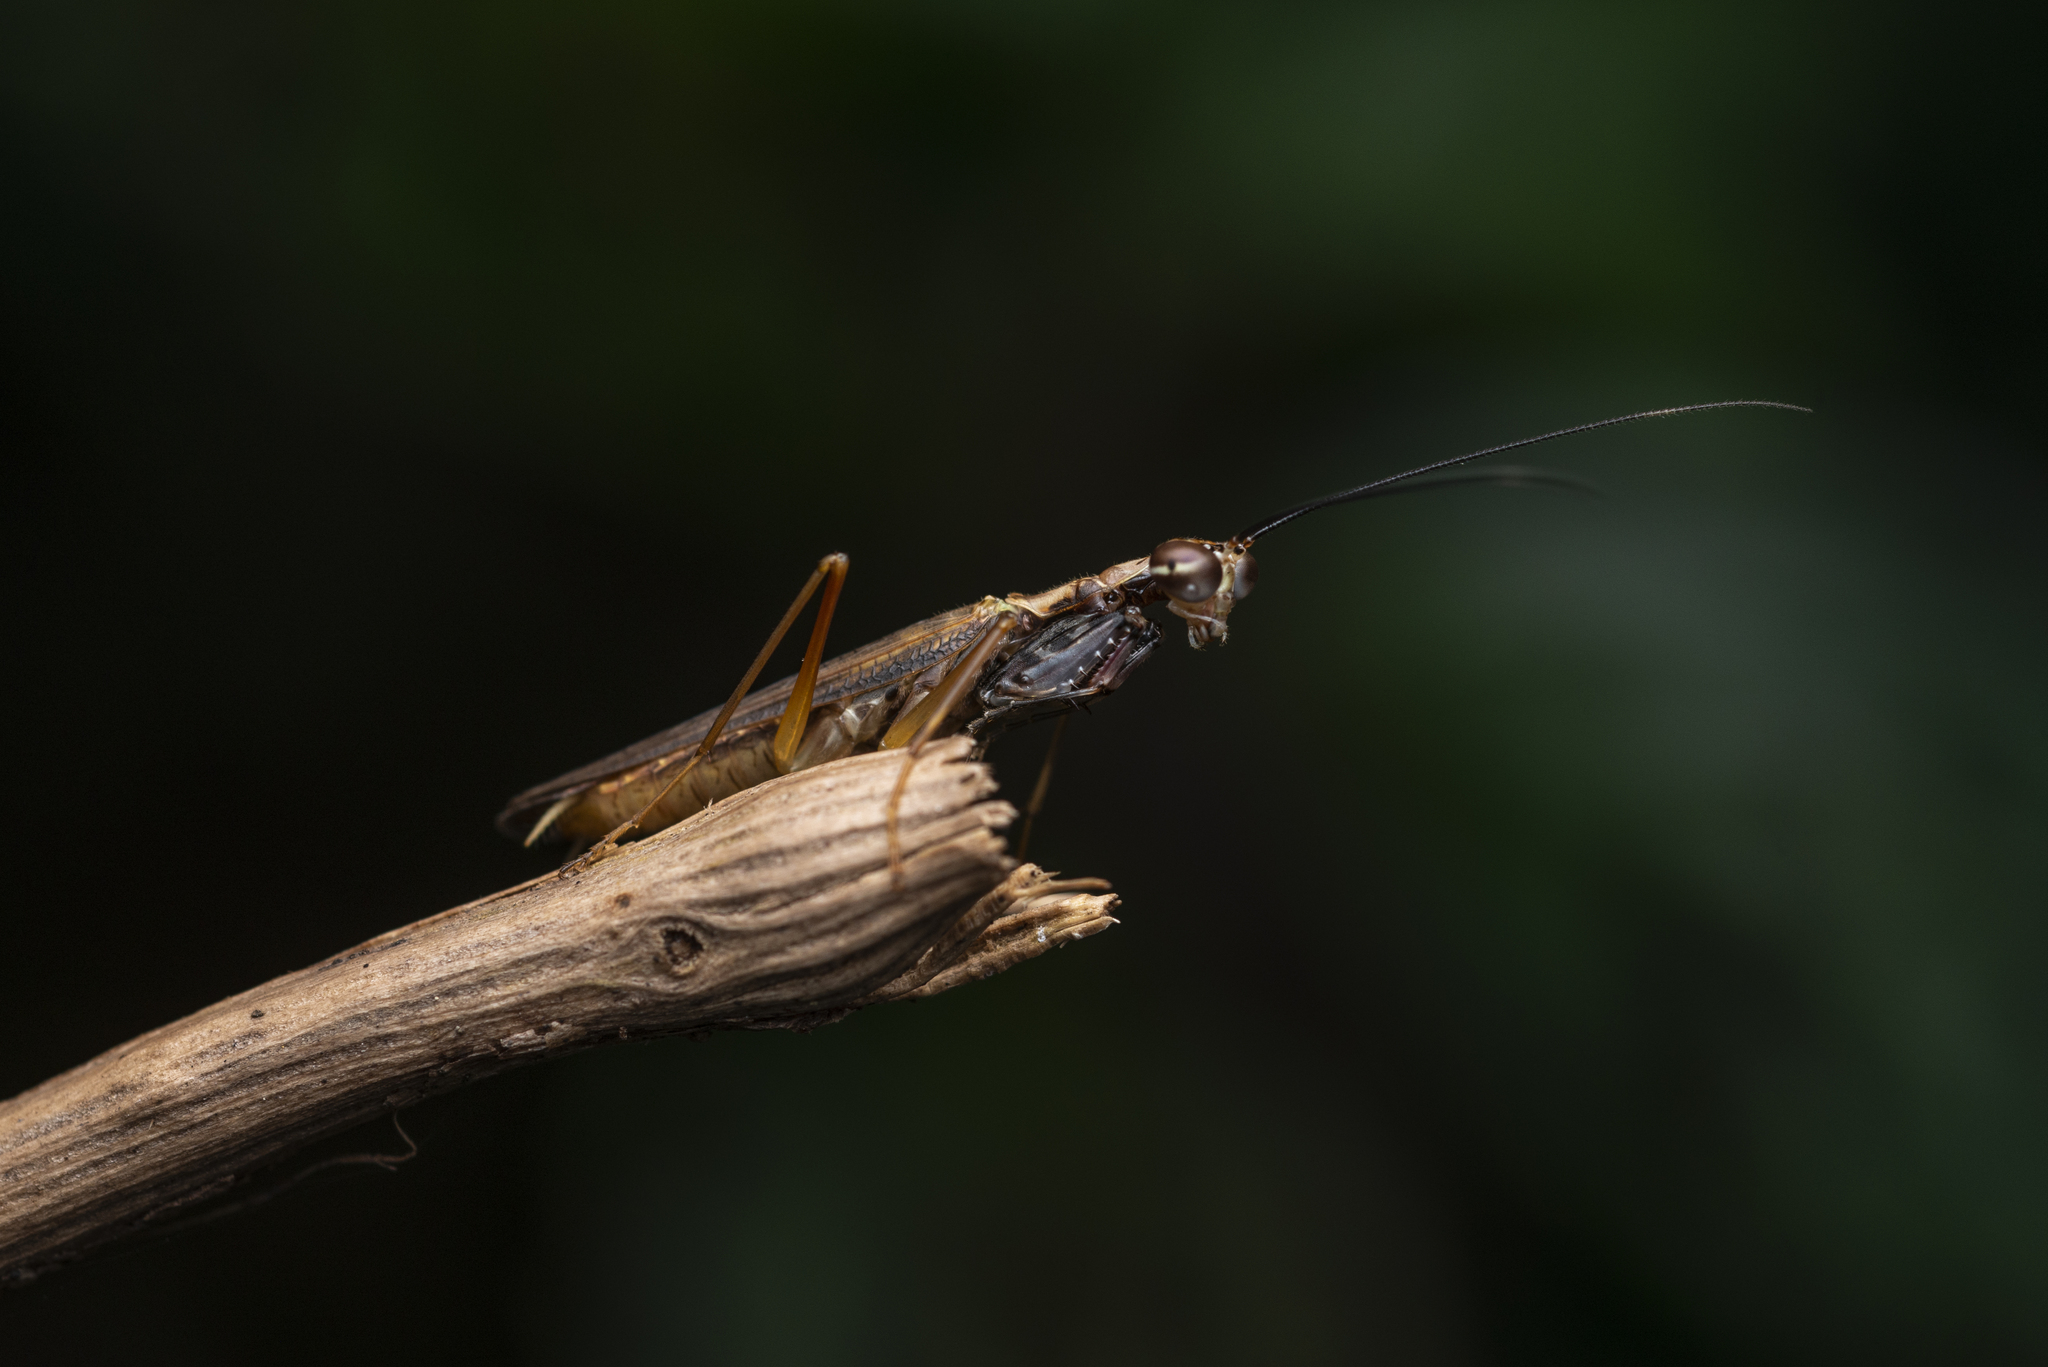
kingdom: Animalia
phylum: Arthropoda
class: Insecta
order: Mantodea
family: Gonypetidae
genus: Spilomantis
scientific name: Spilomantis occipitalis
